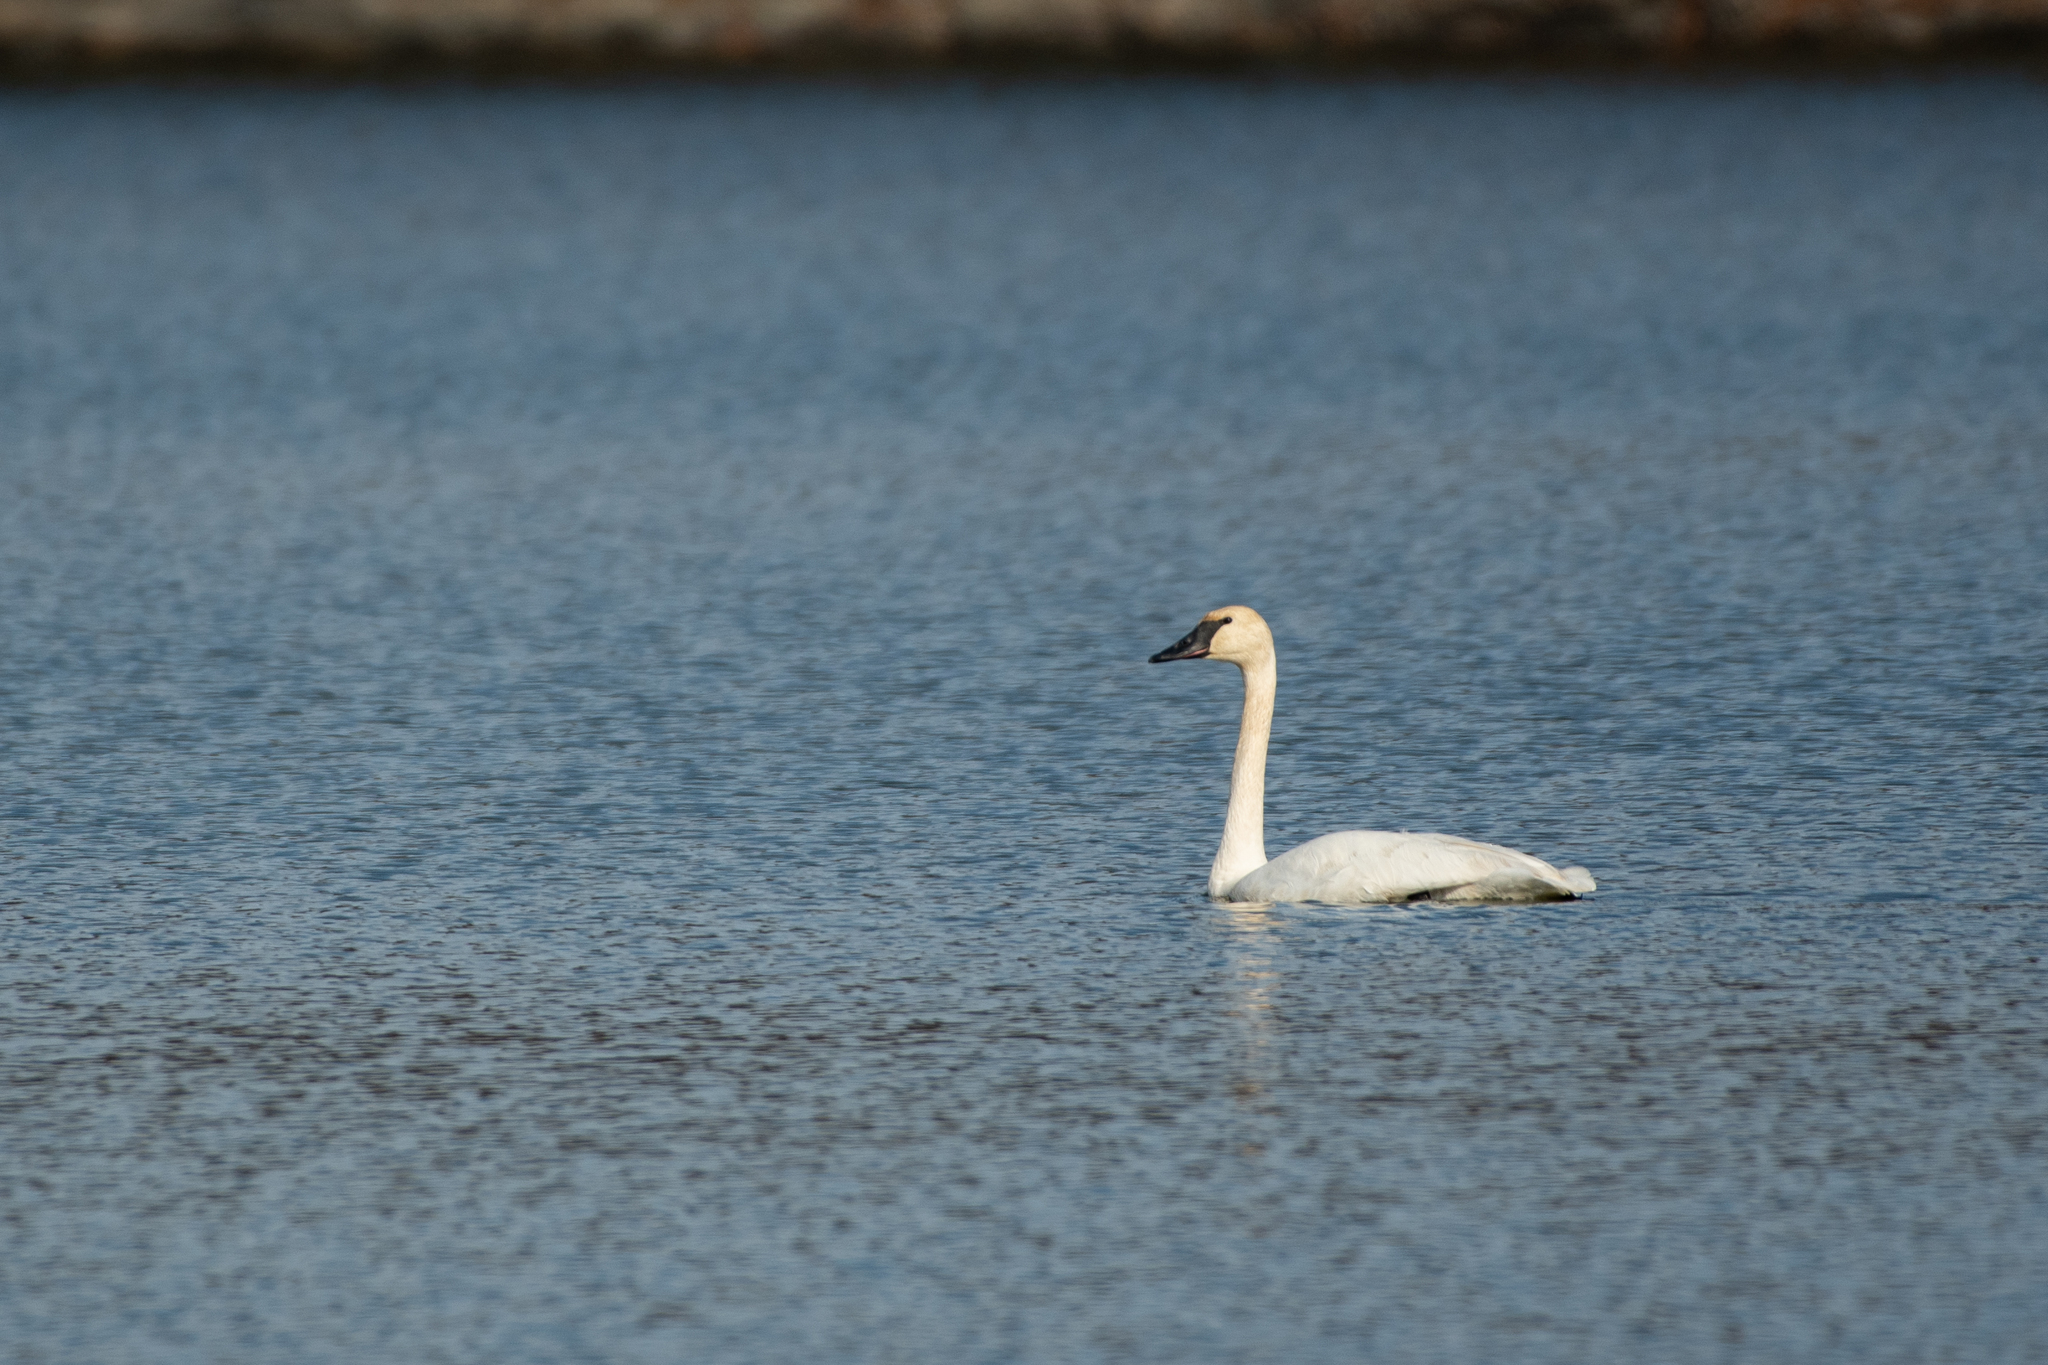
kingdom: Animalia
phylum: Chordata
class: Aves
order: Anseriformes
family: Anatidae
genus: Cygnus
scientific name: Cygnus buccinator
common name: Trumpeter swan
